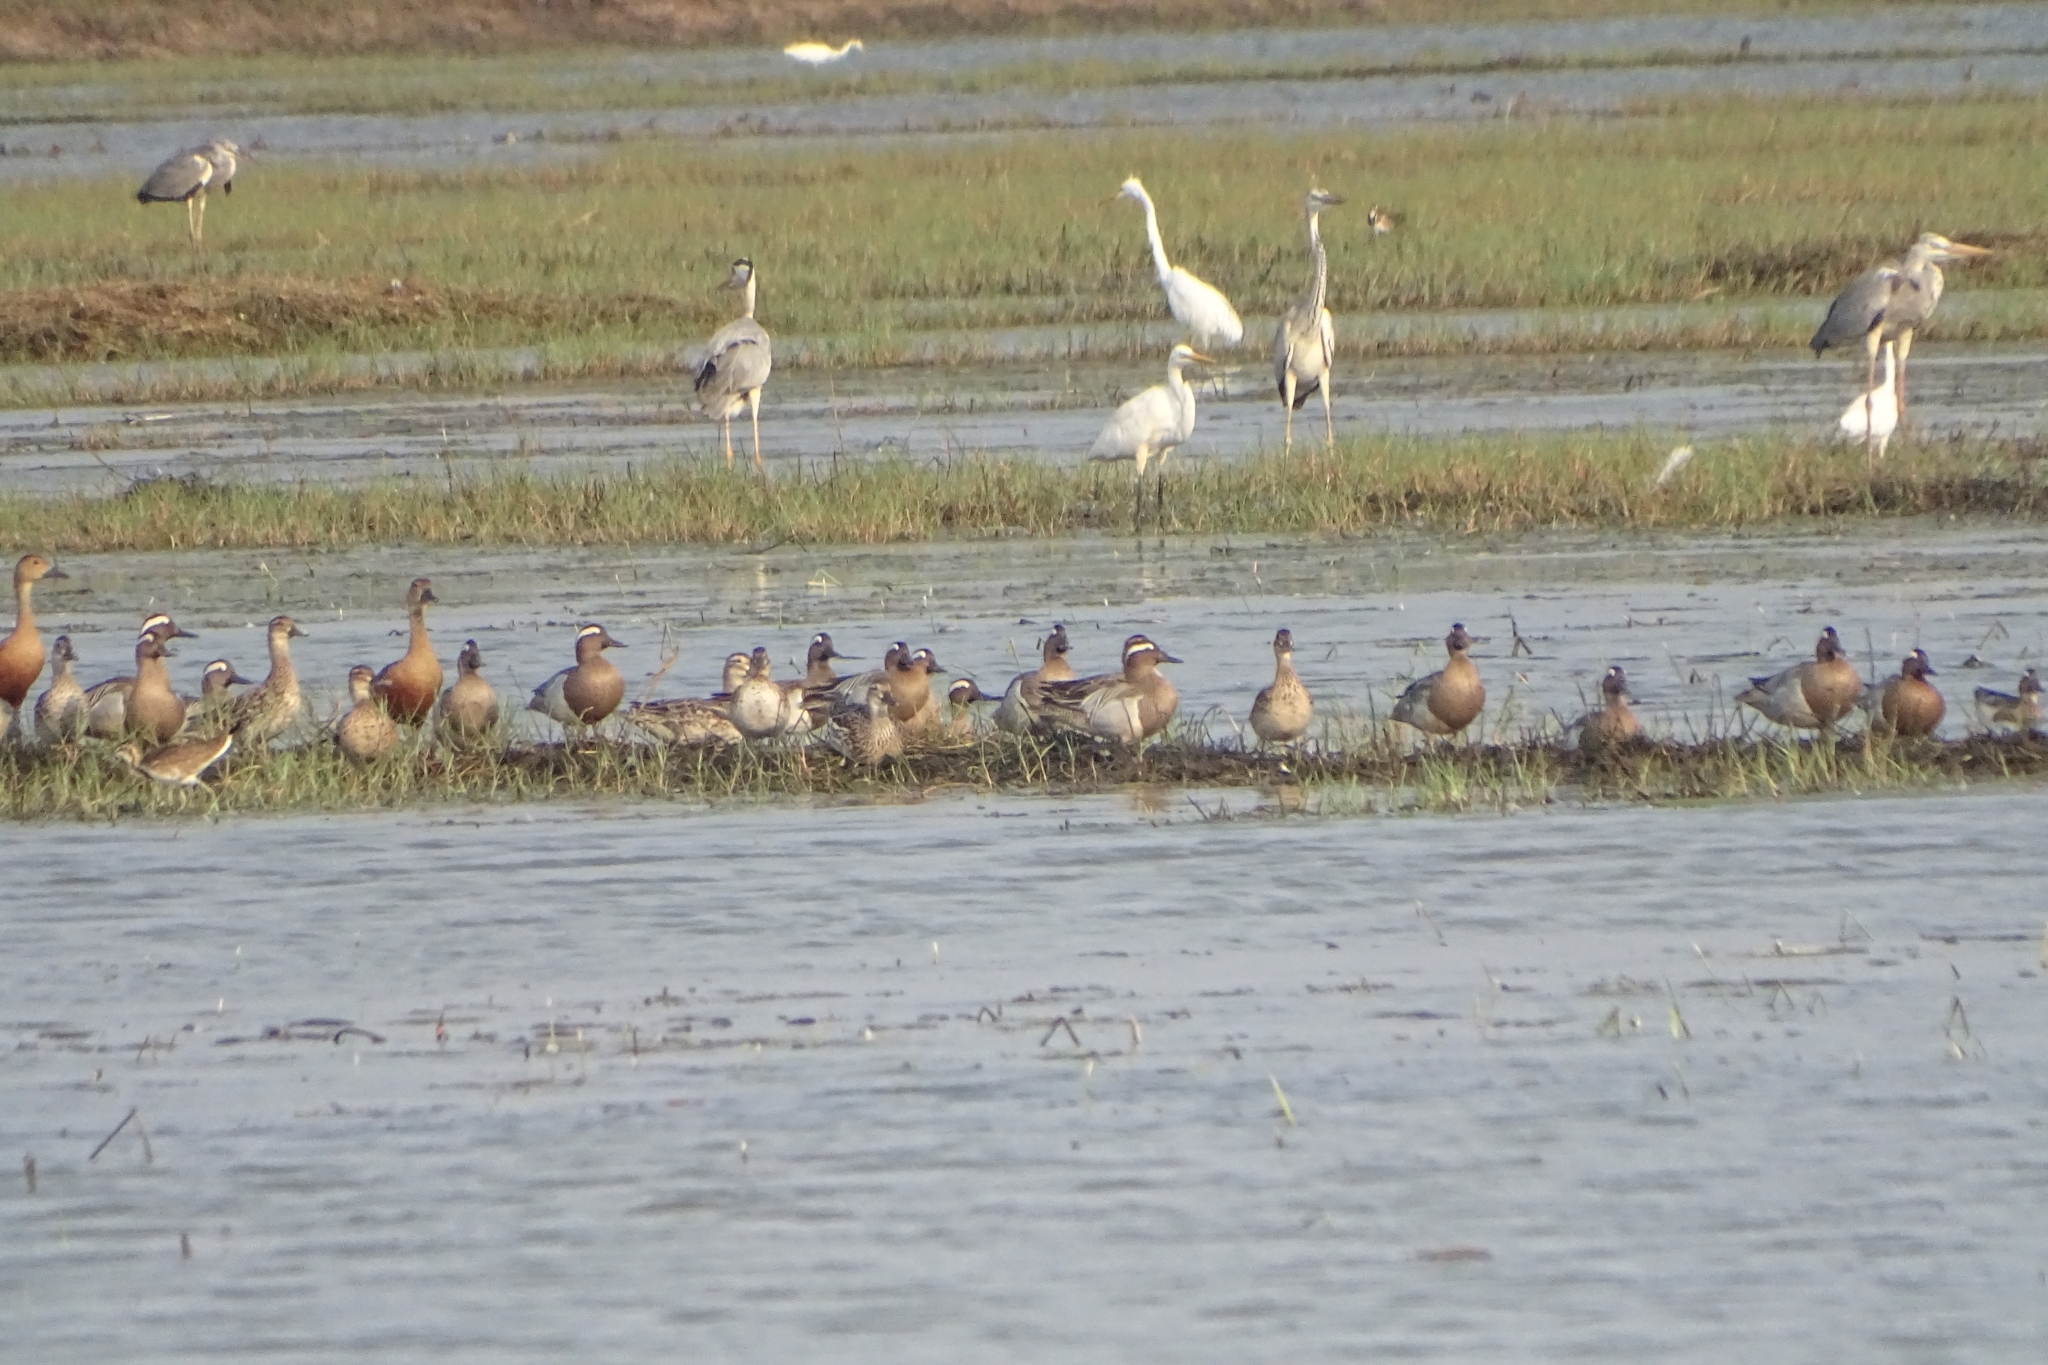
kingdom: Animalia
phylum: Chordata
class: Aves
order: Anseriformes
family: Anatidae
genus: Spatula
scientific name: Spatula querquedula
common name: Garganey
